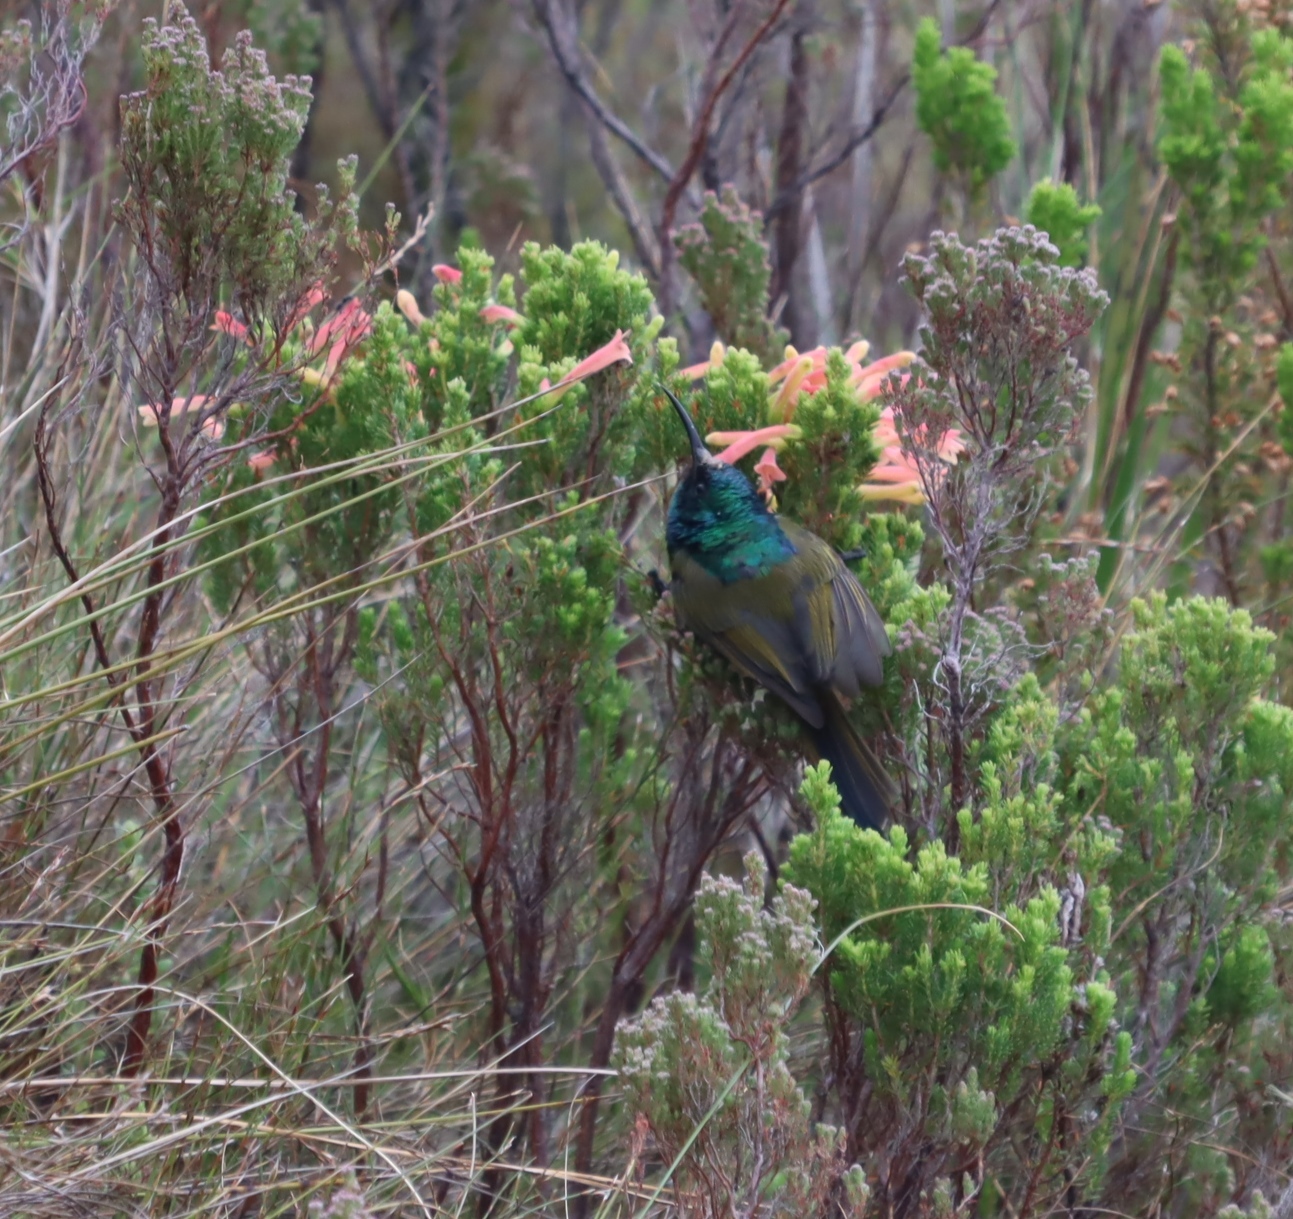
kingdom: Plantae
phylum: Tracheophyta
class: Magnoliopsida
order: Ericales
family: Ericaceae
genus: Erica
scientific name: Erica curviflora
